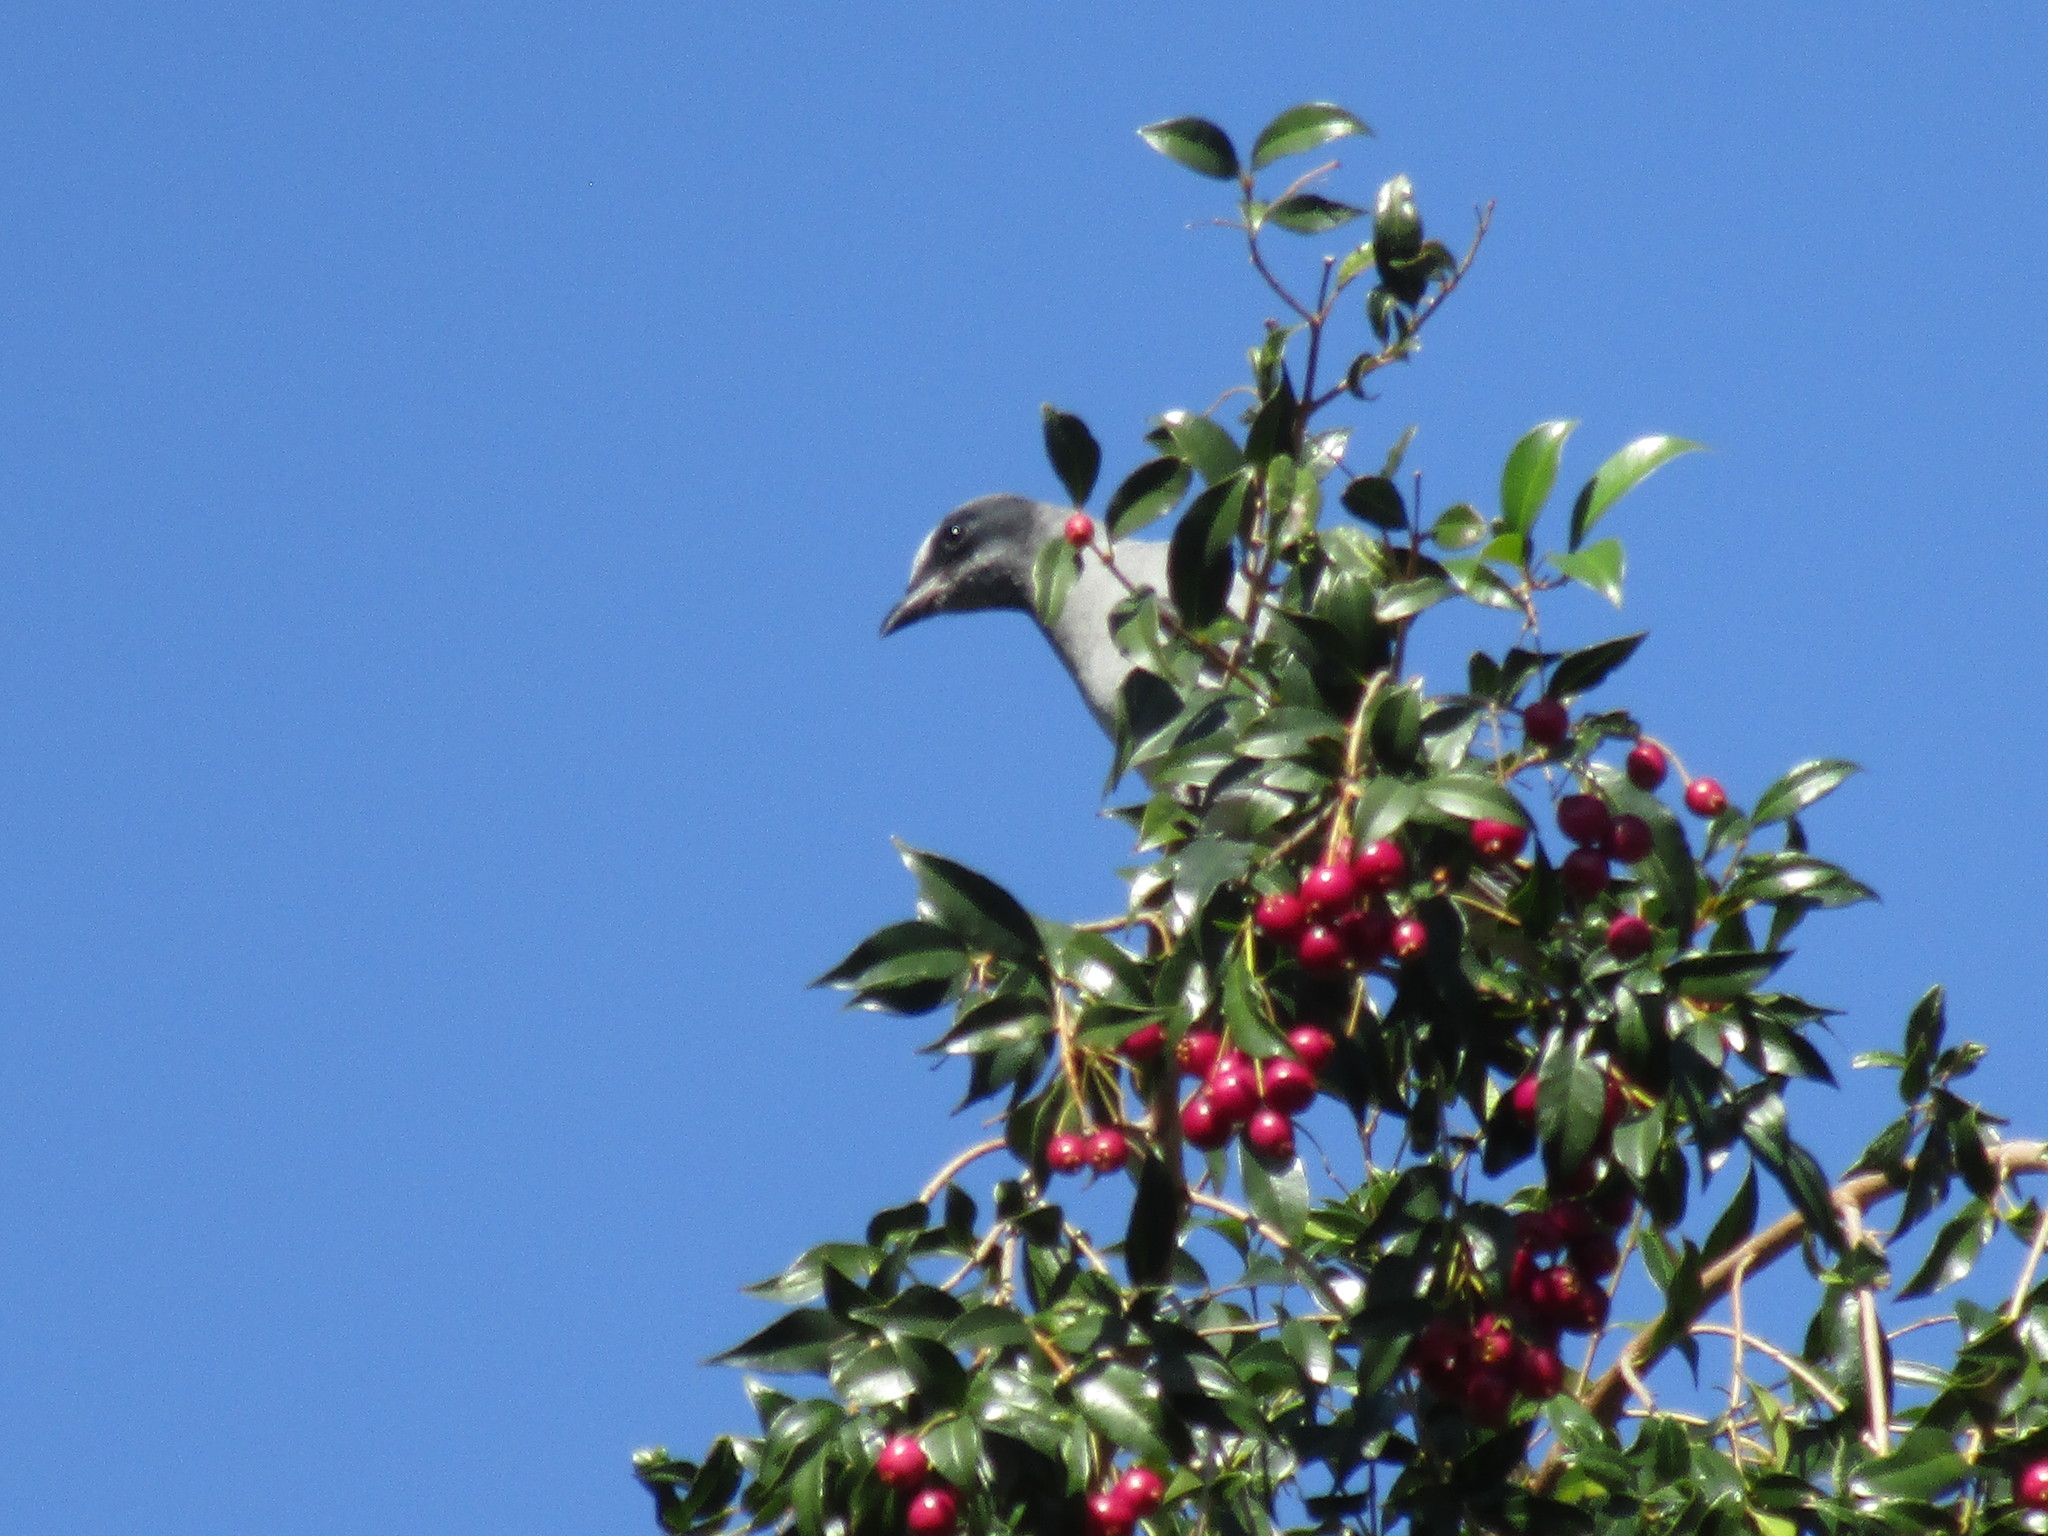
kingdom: Animalia
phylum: Chordata
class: Aves
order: Passeriformes
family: Campephagidae
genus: Coracina
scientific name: Coracina novaehollandiae
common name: Black-faced cuckooshrike
